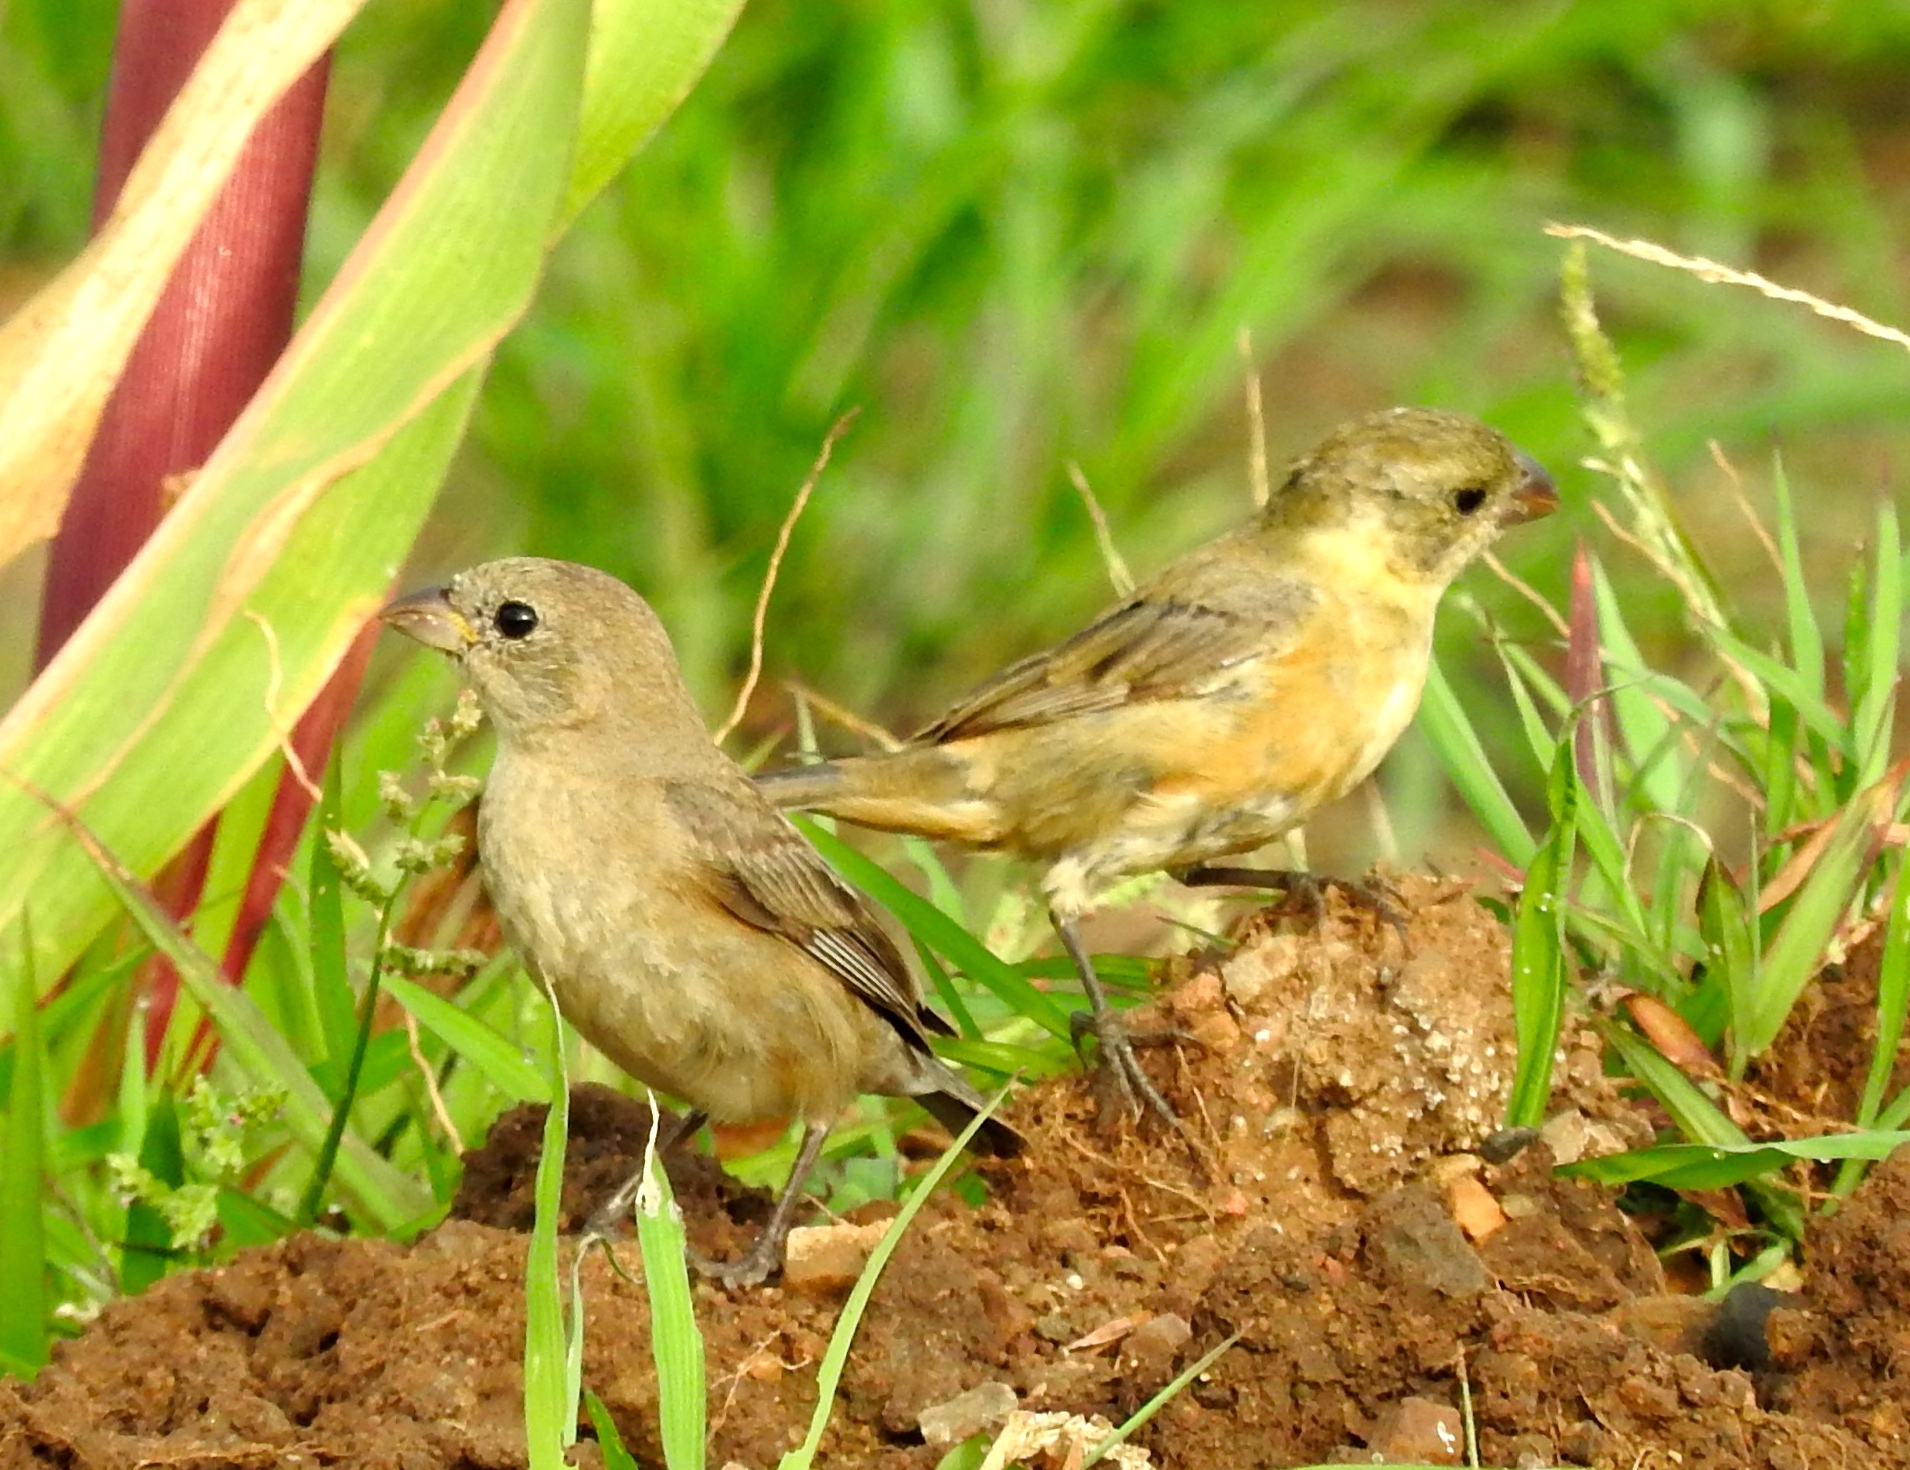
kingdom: Animalia
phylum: Chordata
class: Aves
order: Passeriformes
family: Thraupidae
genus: Sporophila
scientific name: Sporophila torqueola
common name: White-collared seedeater
